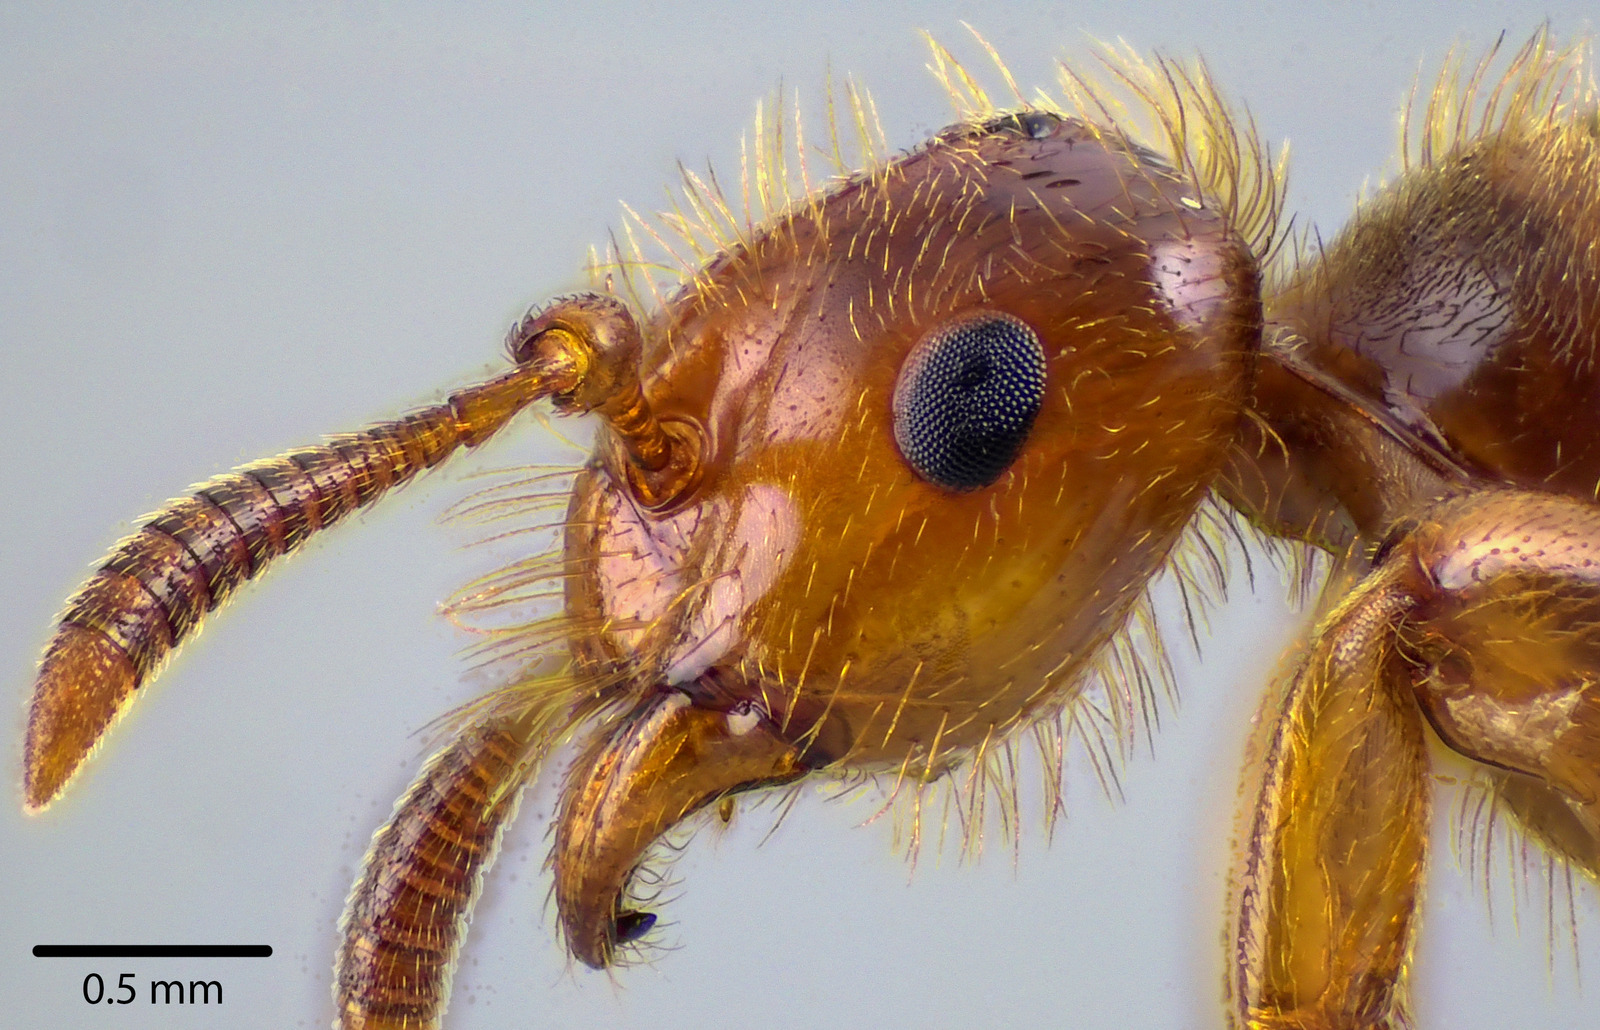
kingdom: Animalia
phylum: Arthropoda
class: Insecta
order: Hymenoptera
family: Formicidae
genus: Lasius
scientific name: Lasius
